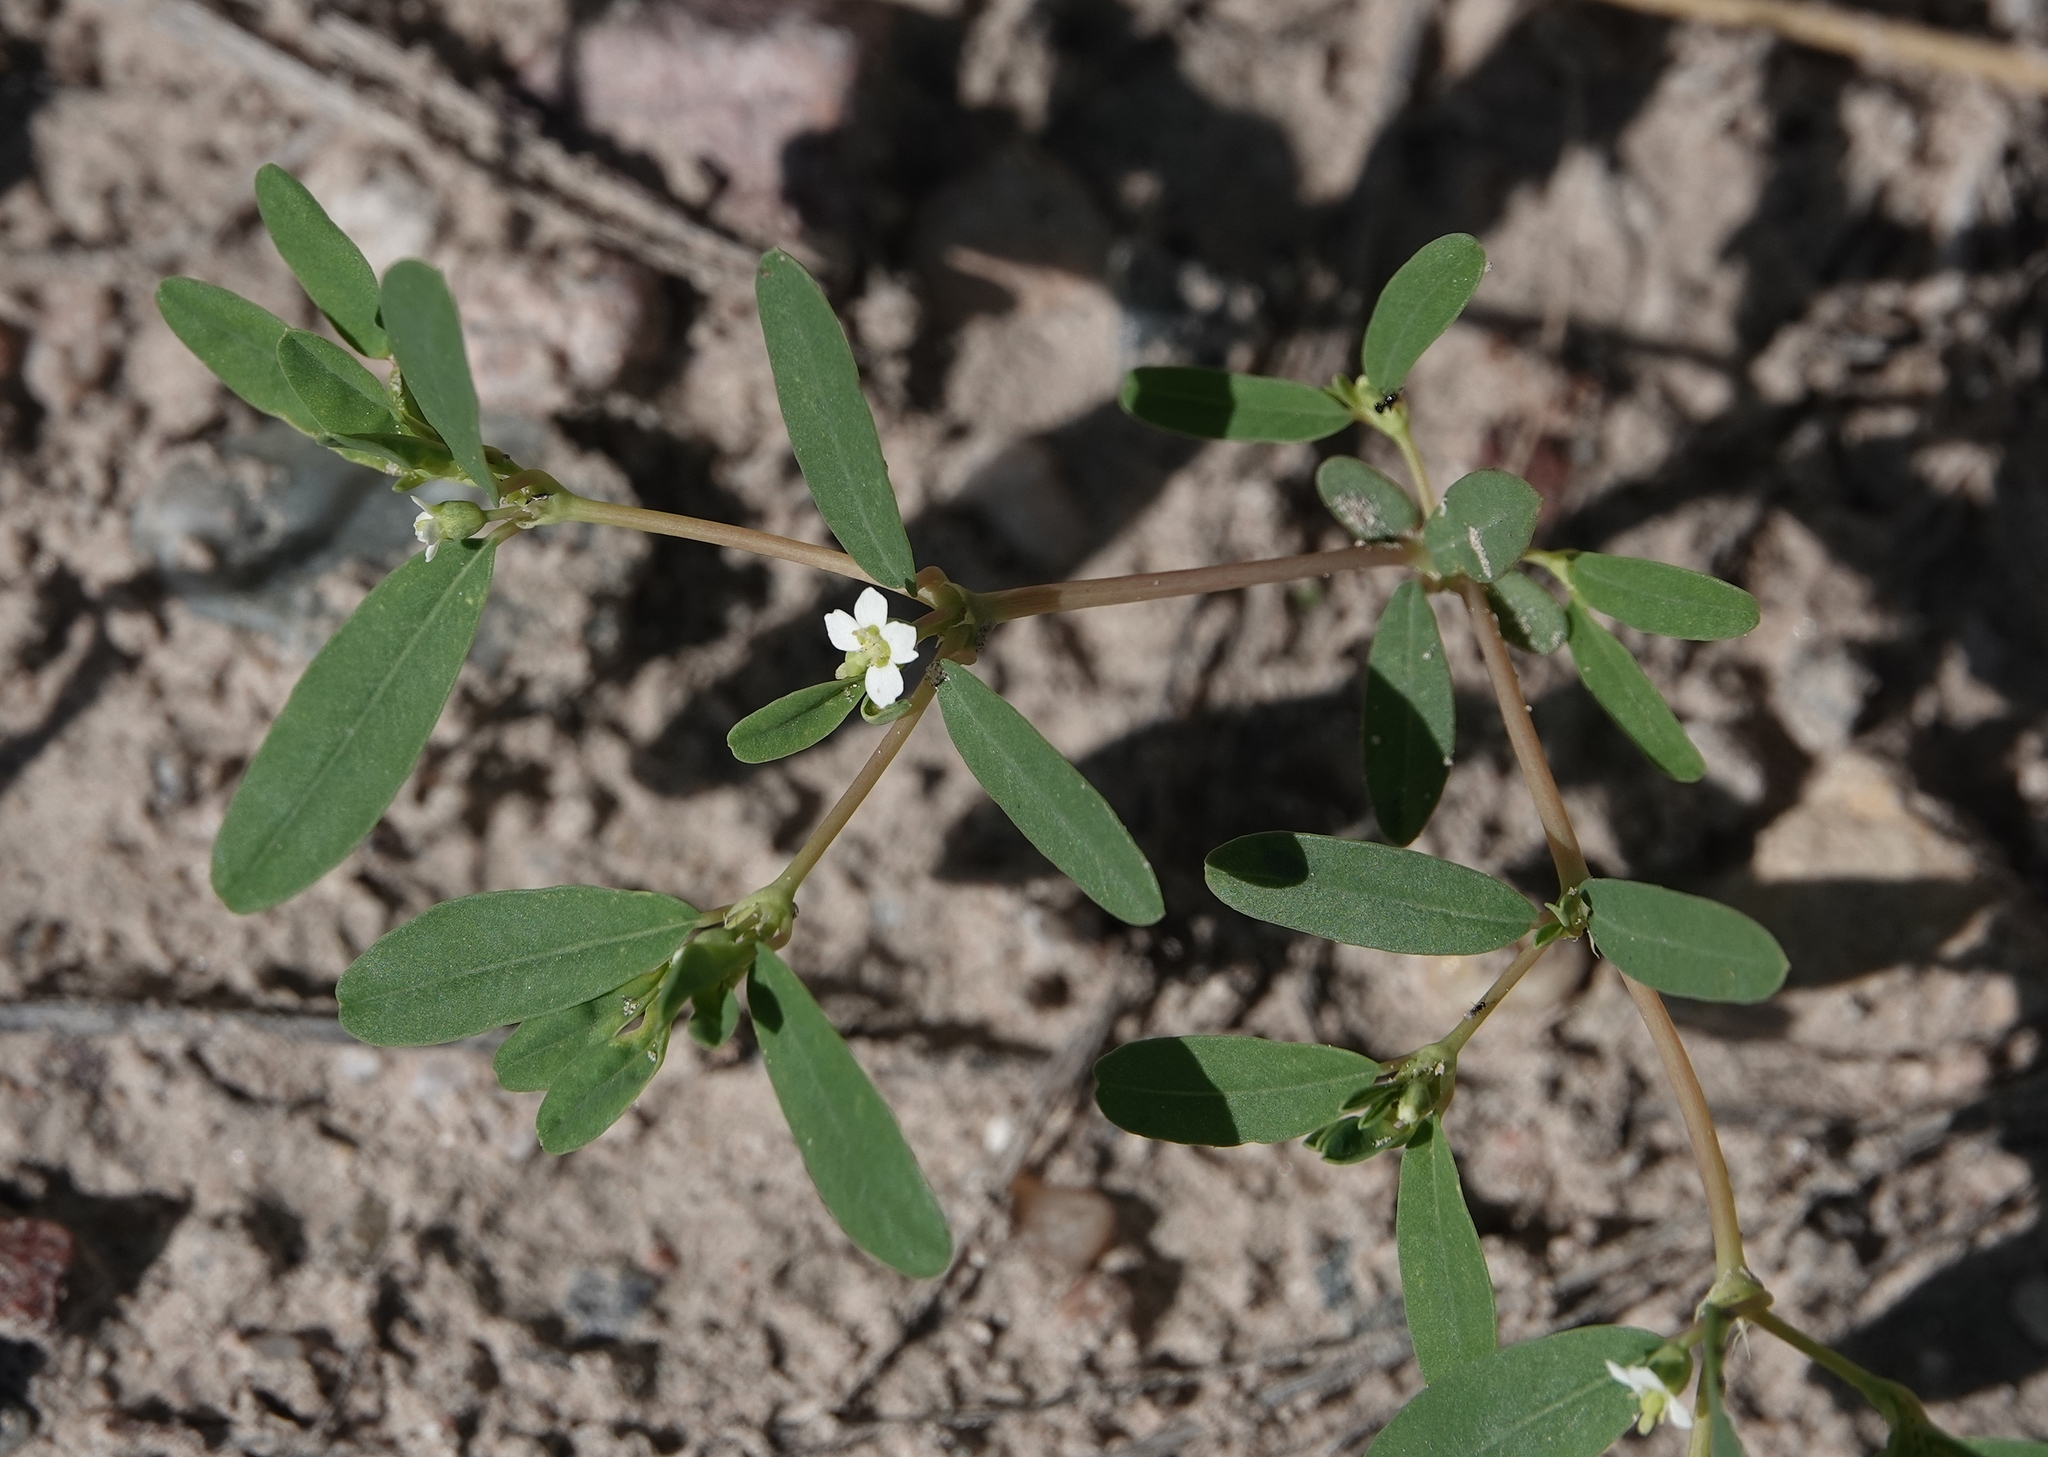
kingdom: Plantae
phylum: Tracheophyta
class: Magnoliopsida
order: Malpighiales
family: Euphorbiaceae
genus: Euphorbia
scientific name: Euphorbia missurica
